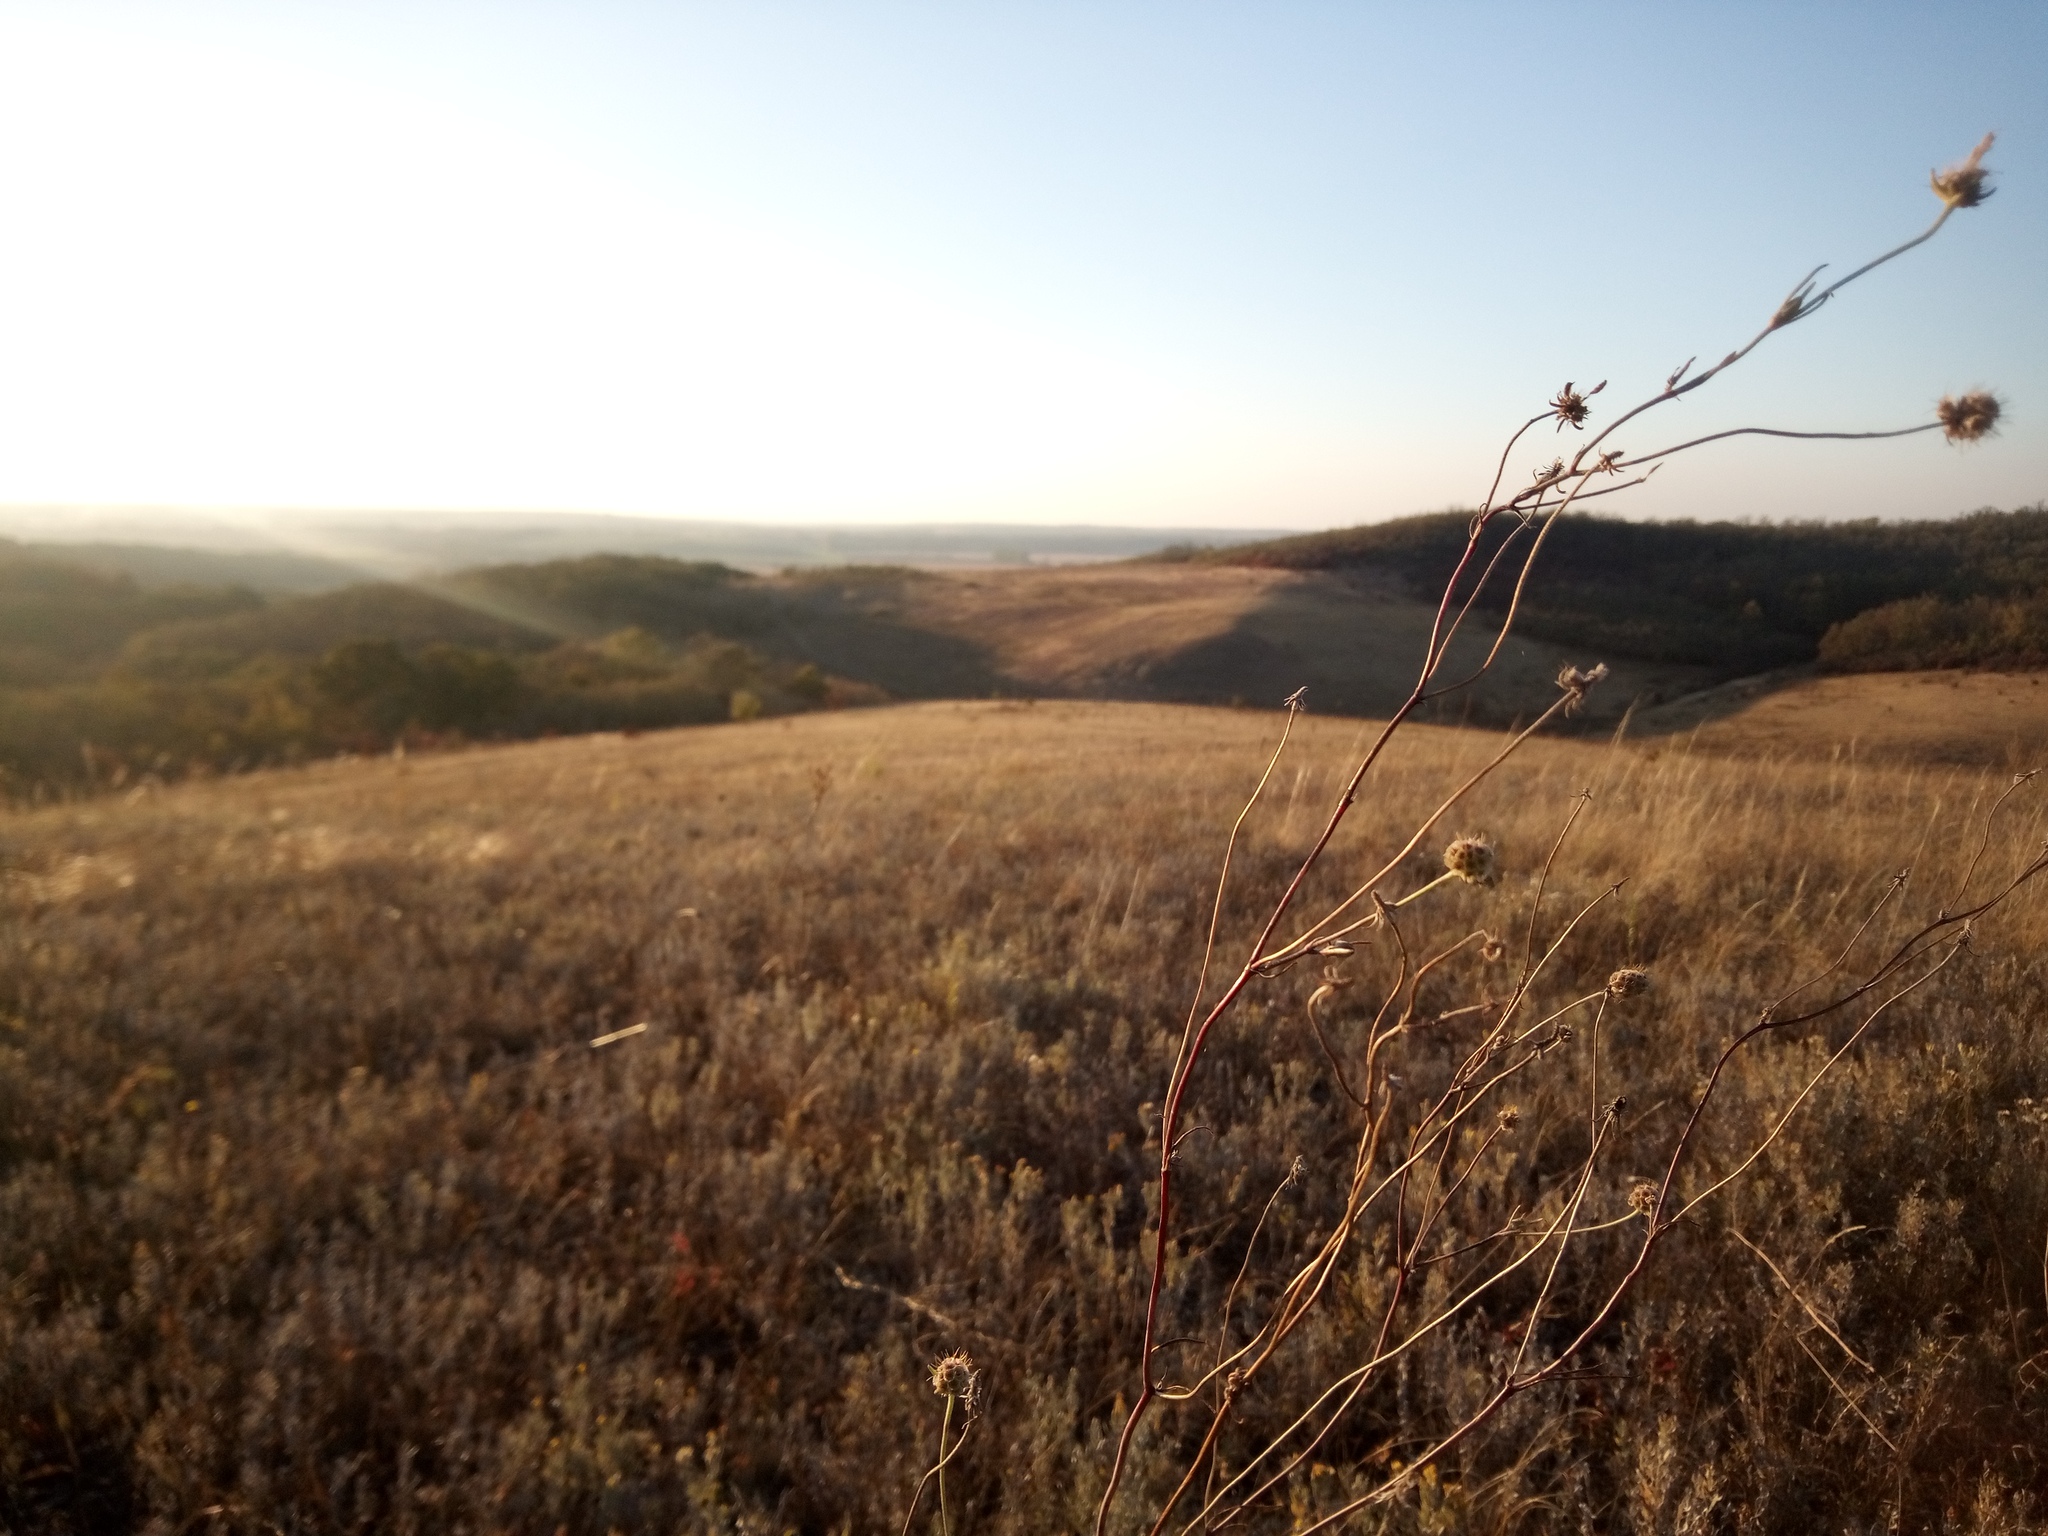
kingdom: Plantae
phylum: Tracheophyta
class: Magnoliopsida
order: Dipsacales
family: Caprifoliaceae
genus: Scabiosa
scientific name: Scabiosa ochroleuca
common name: Cream pincushions
